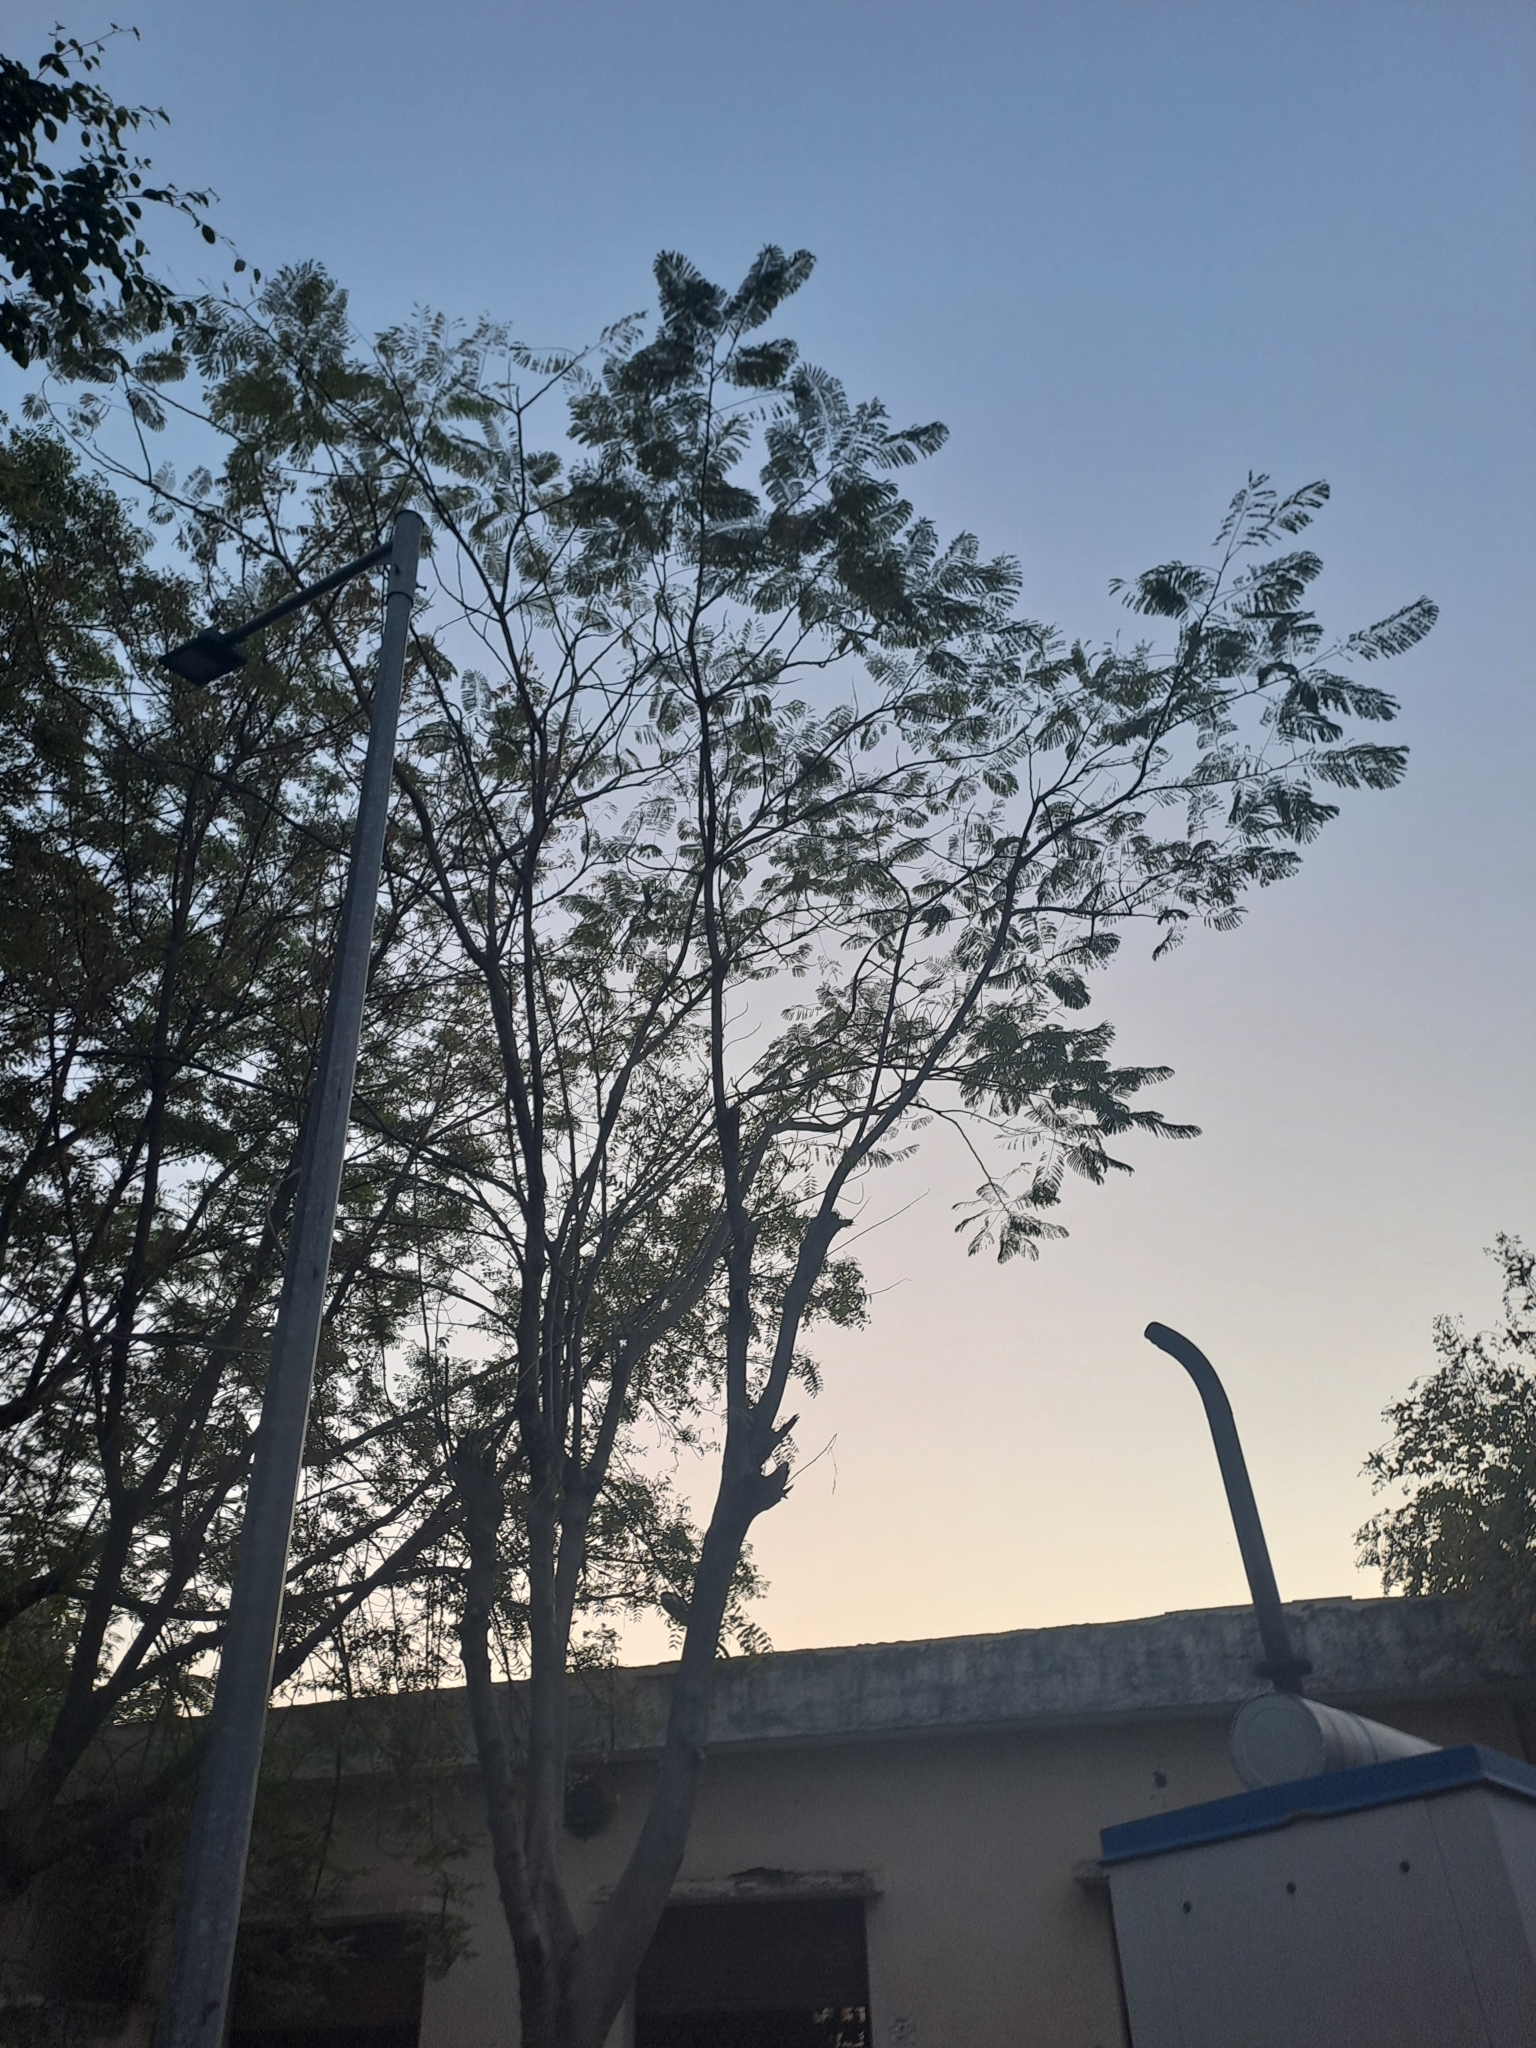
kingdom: Plantae
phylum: Tracheophyta
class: Magnoliopsida
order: Fabales
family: Fabaceae
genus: Delonix
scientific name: Delonix regia
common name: Royal poinciana
